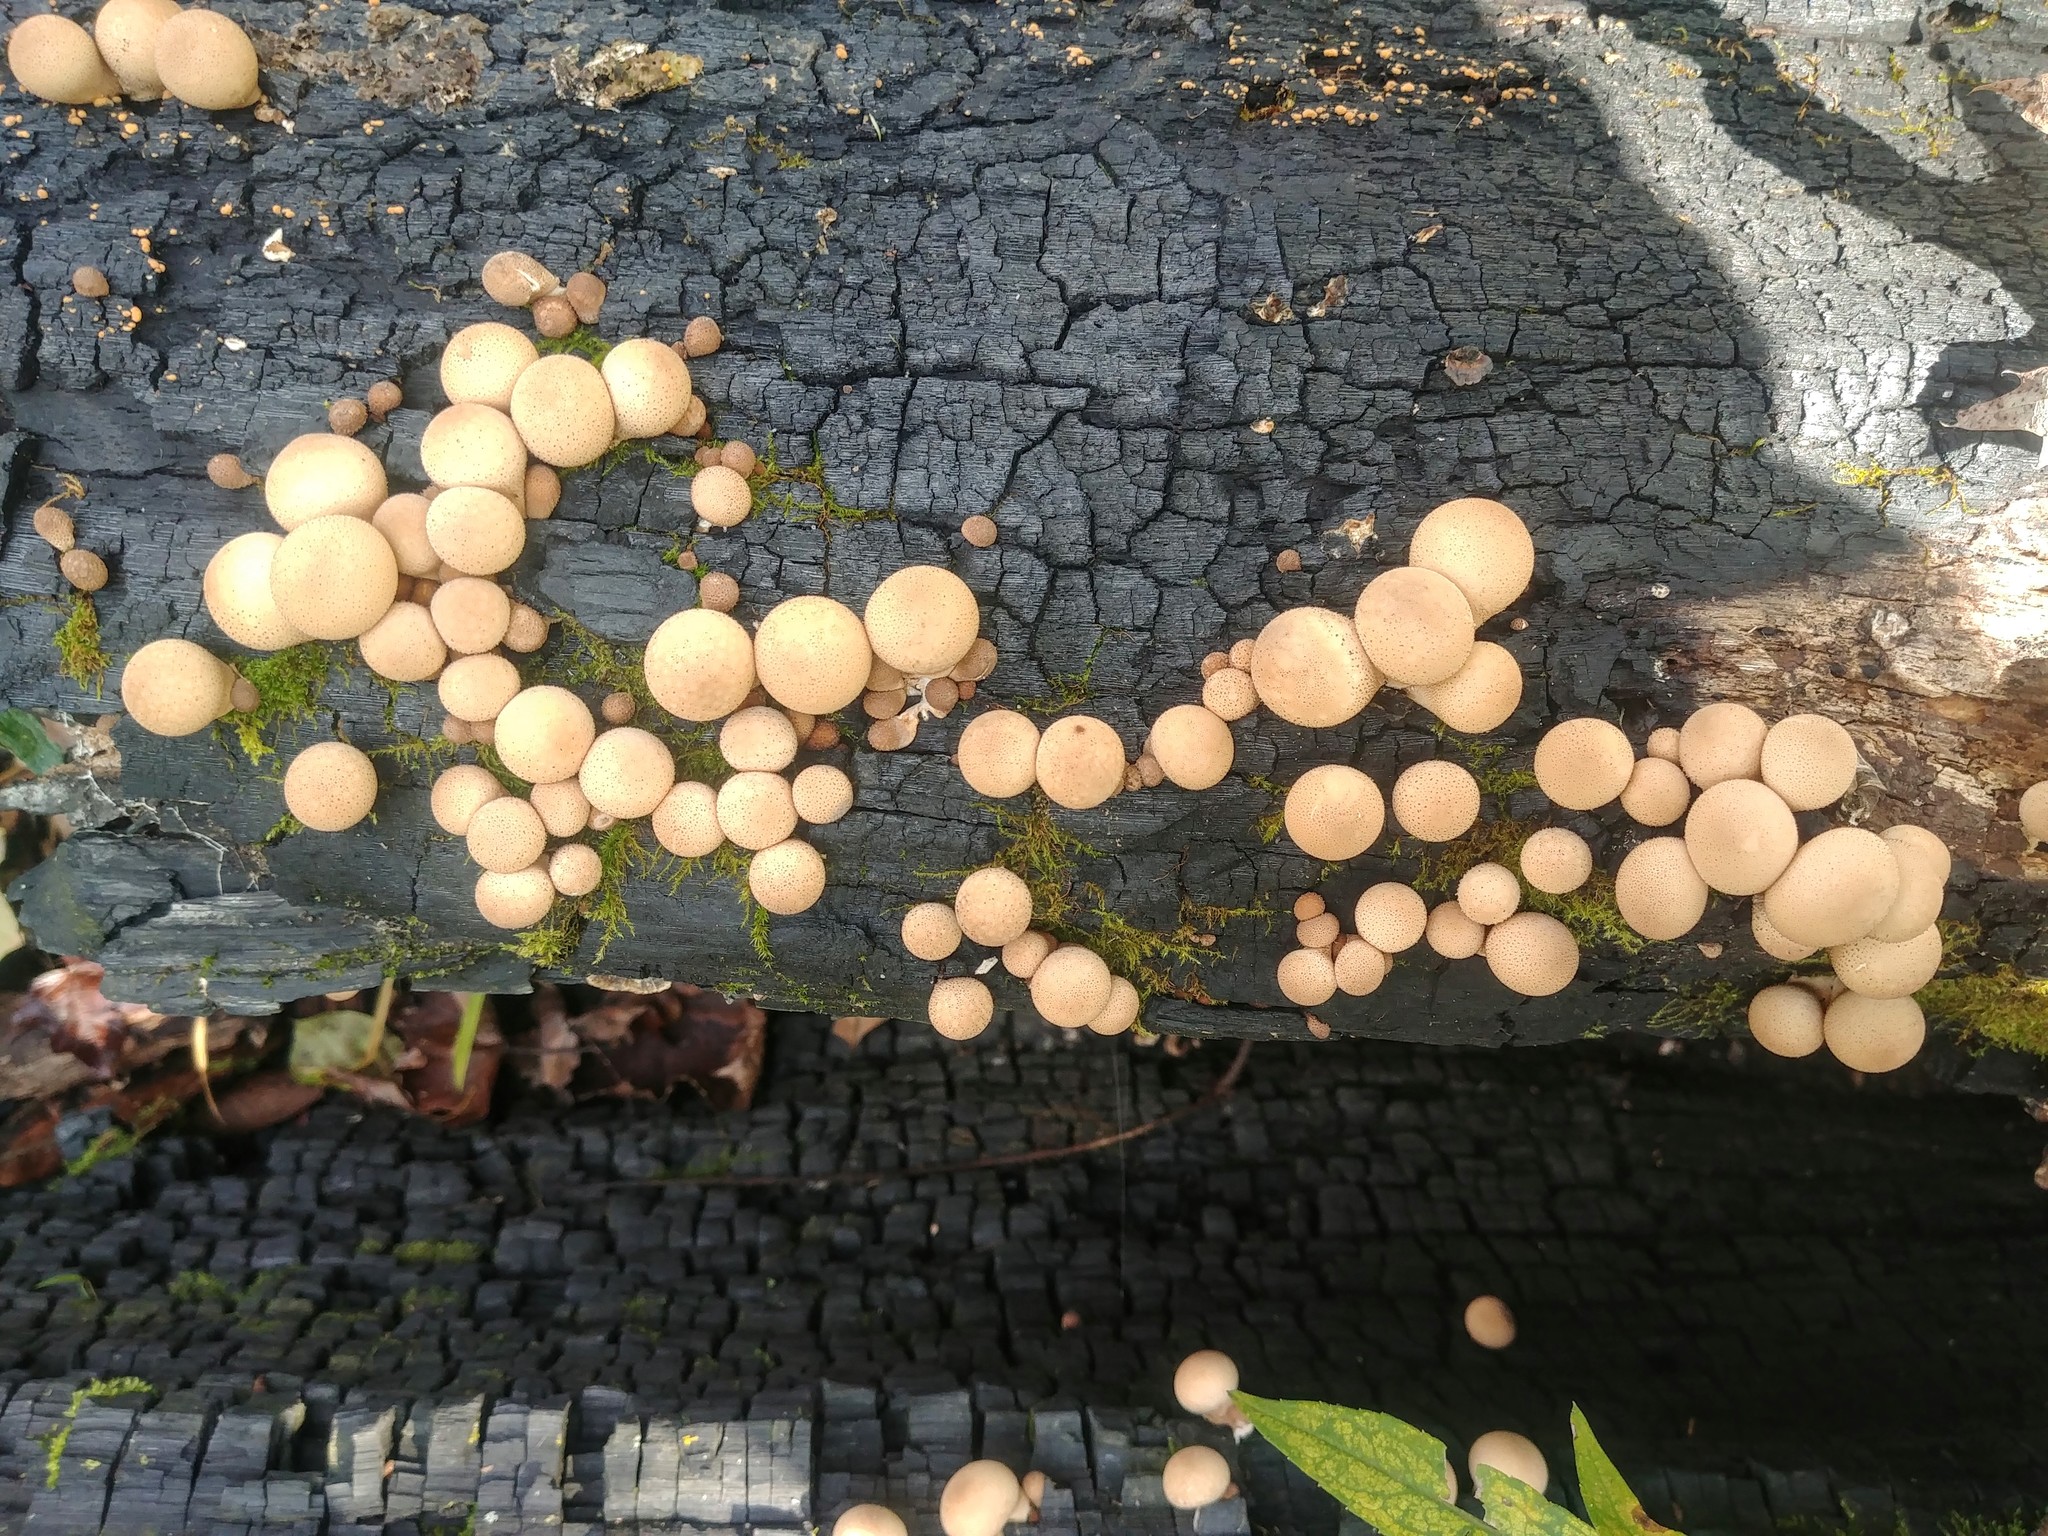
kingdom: Fungi
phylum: Basidiomycota
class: Agaricomycetes
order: Agaricales
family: Lycoperdaceae
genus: Apioperdon
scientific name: Apioperdon pyriforme
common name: Pear-shaped puffball
